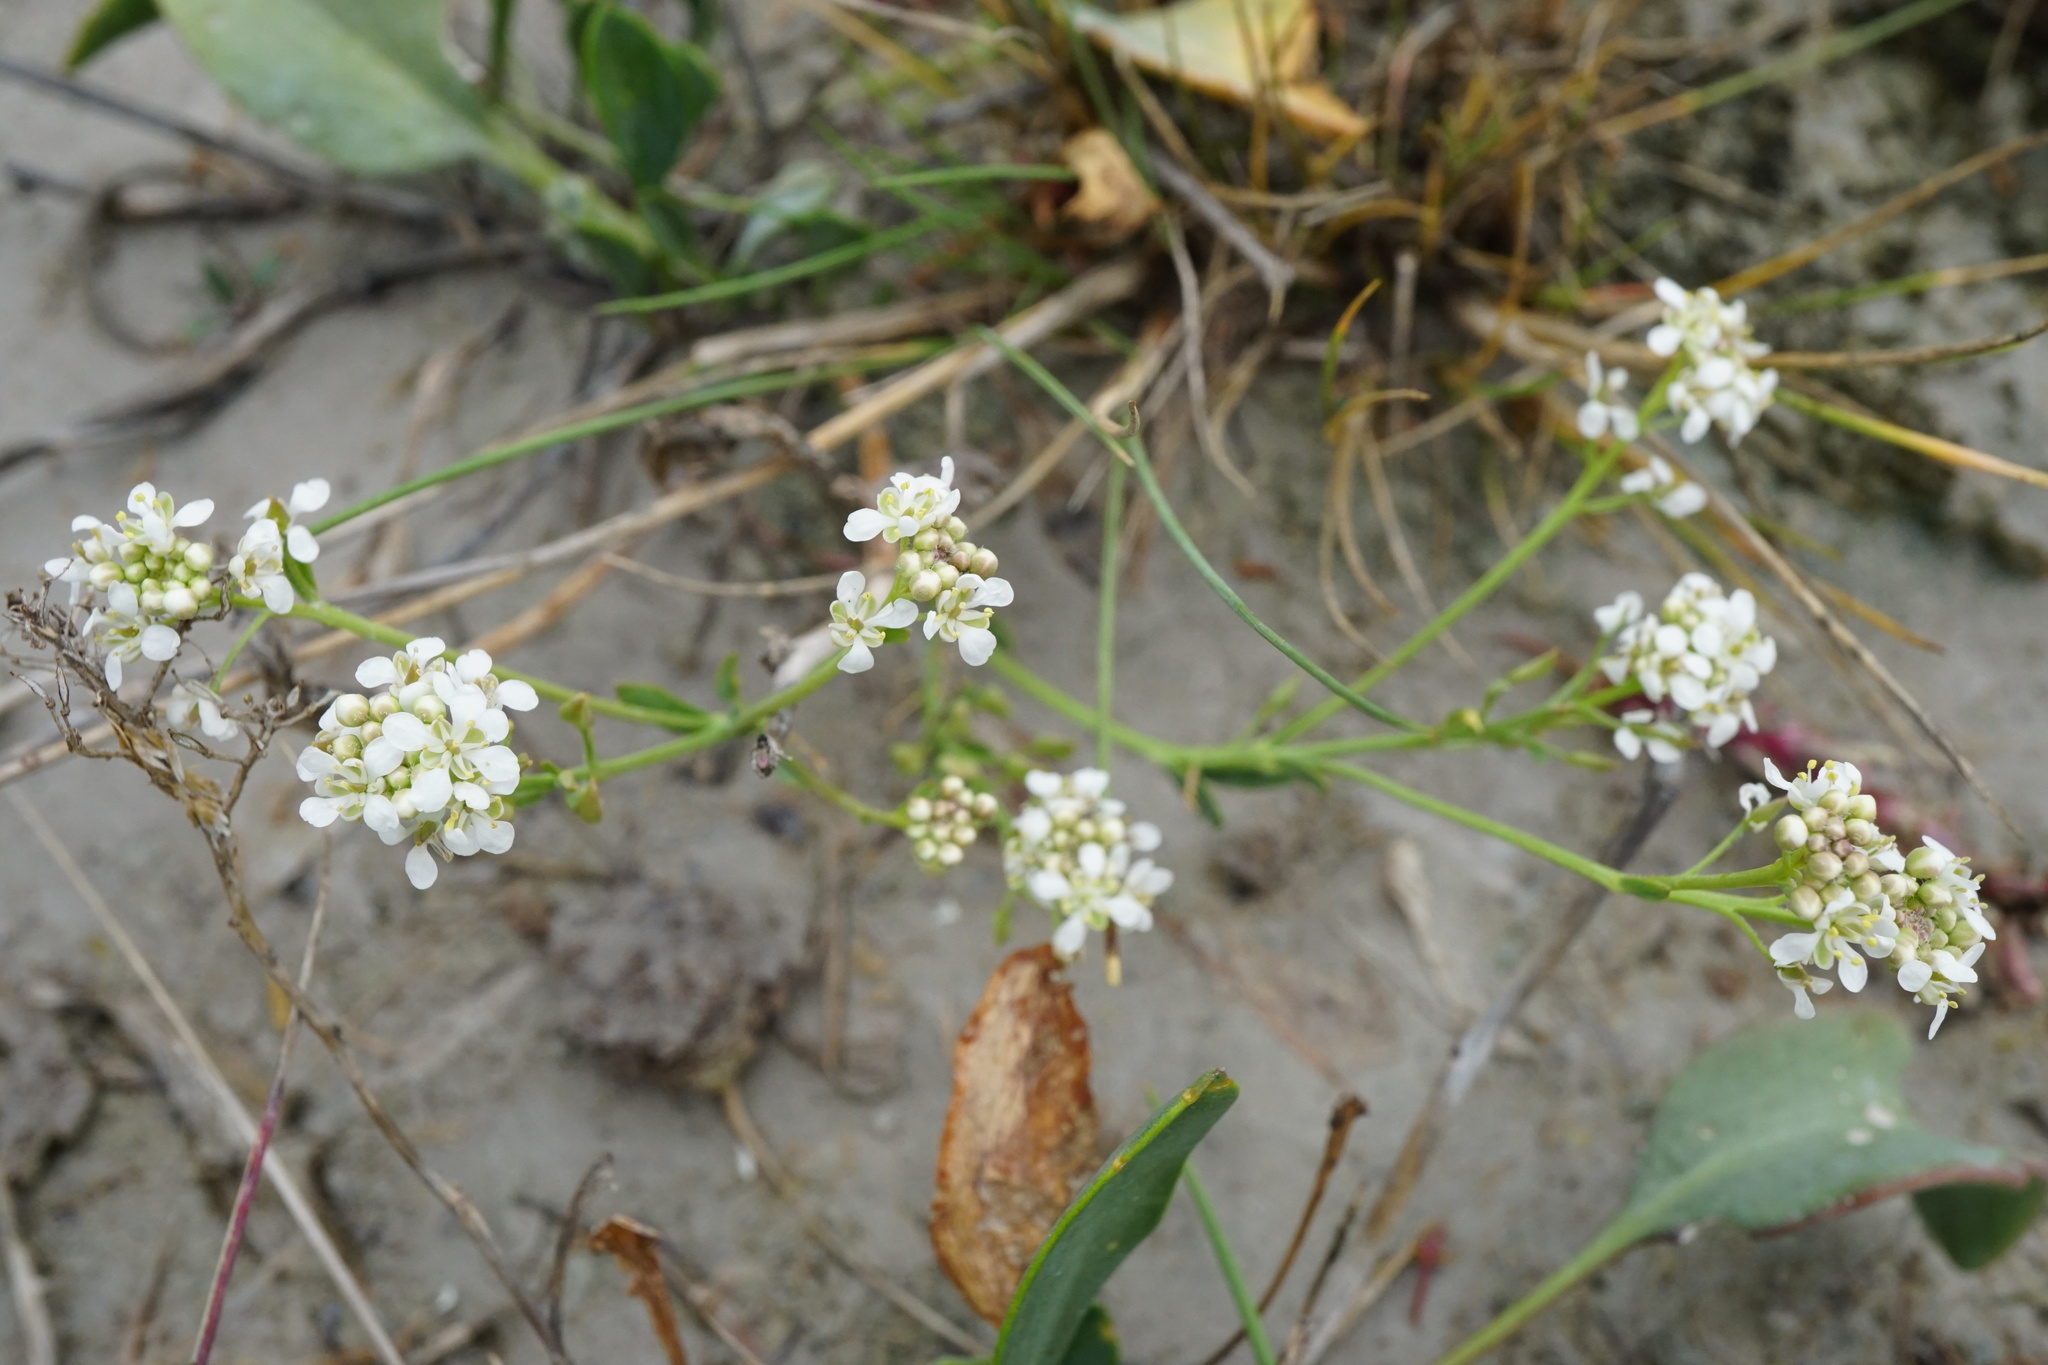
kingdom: Plantae
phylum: Tracheophyta
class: Magnoliopsida
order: Brassicales
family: Brassicaceae
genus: Lepidium
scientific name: Lepidium cartilagineum
